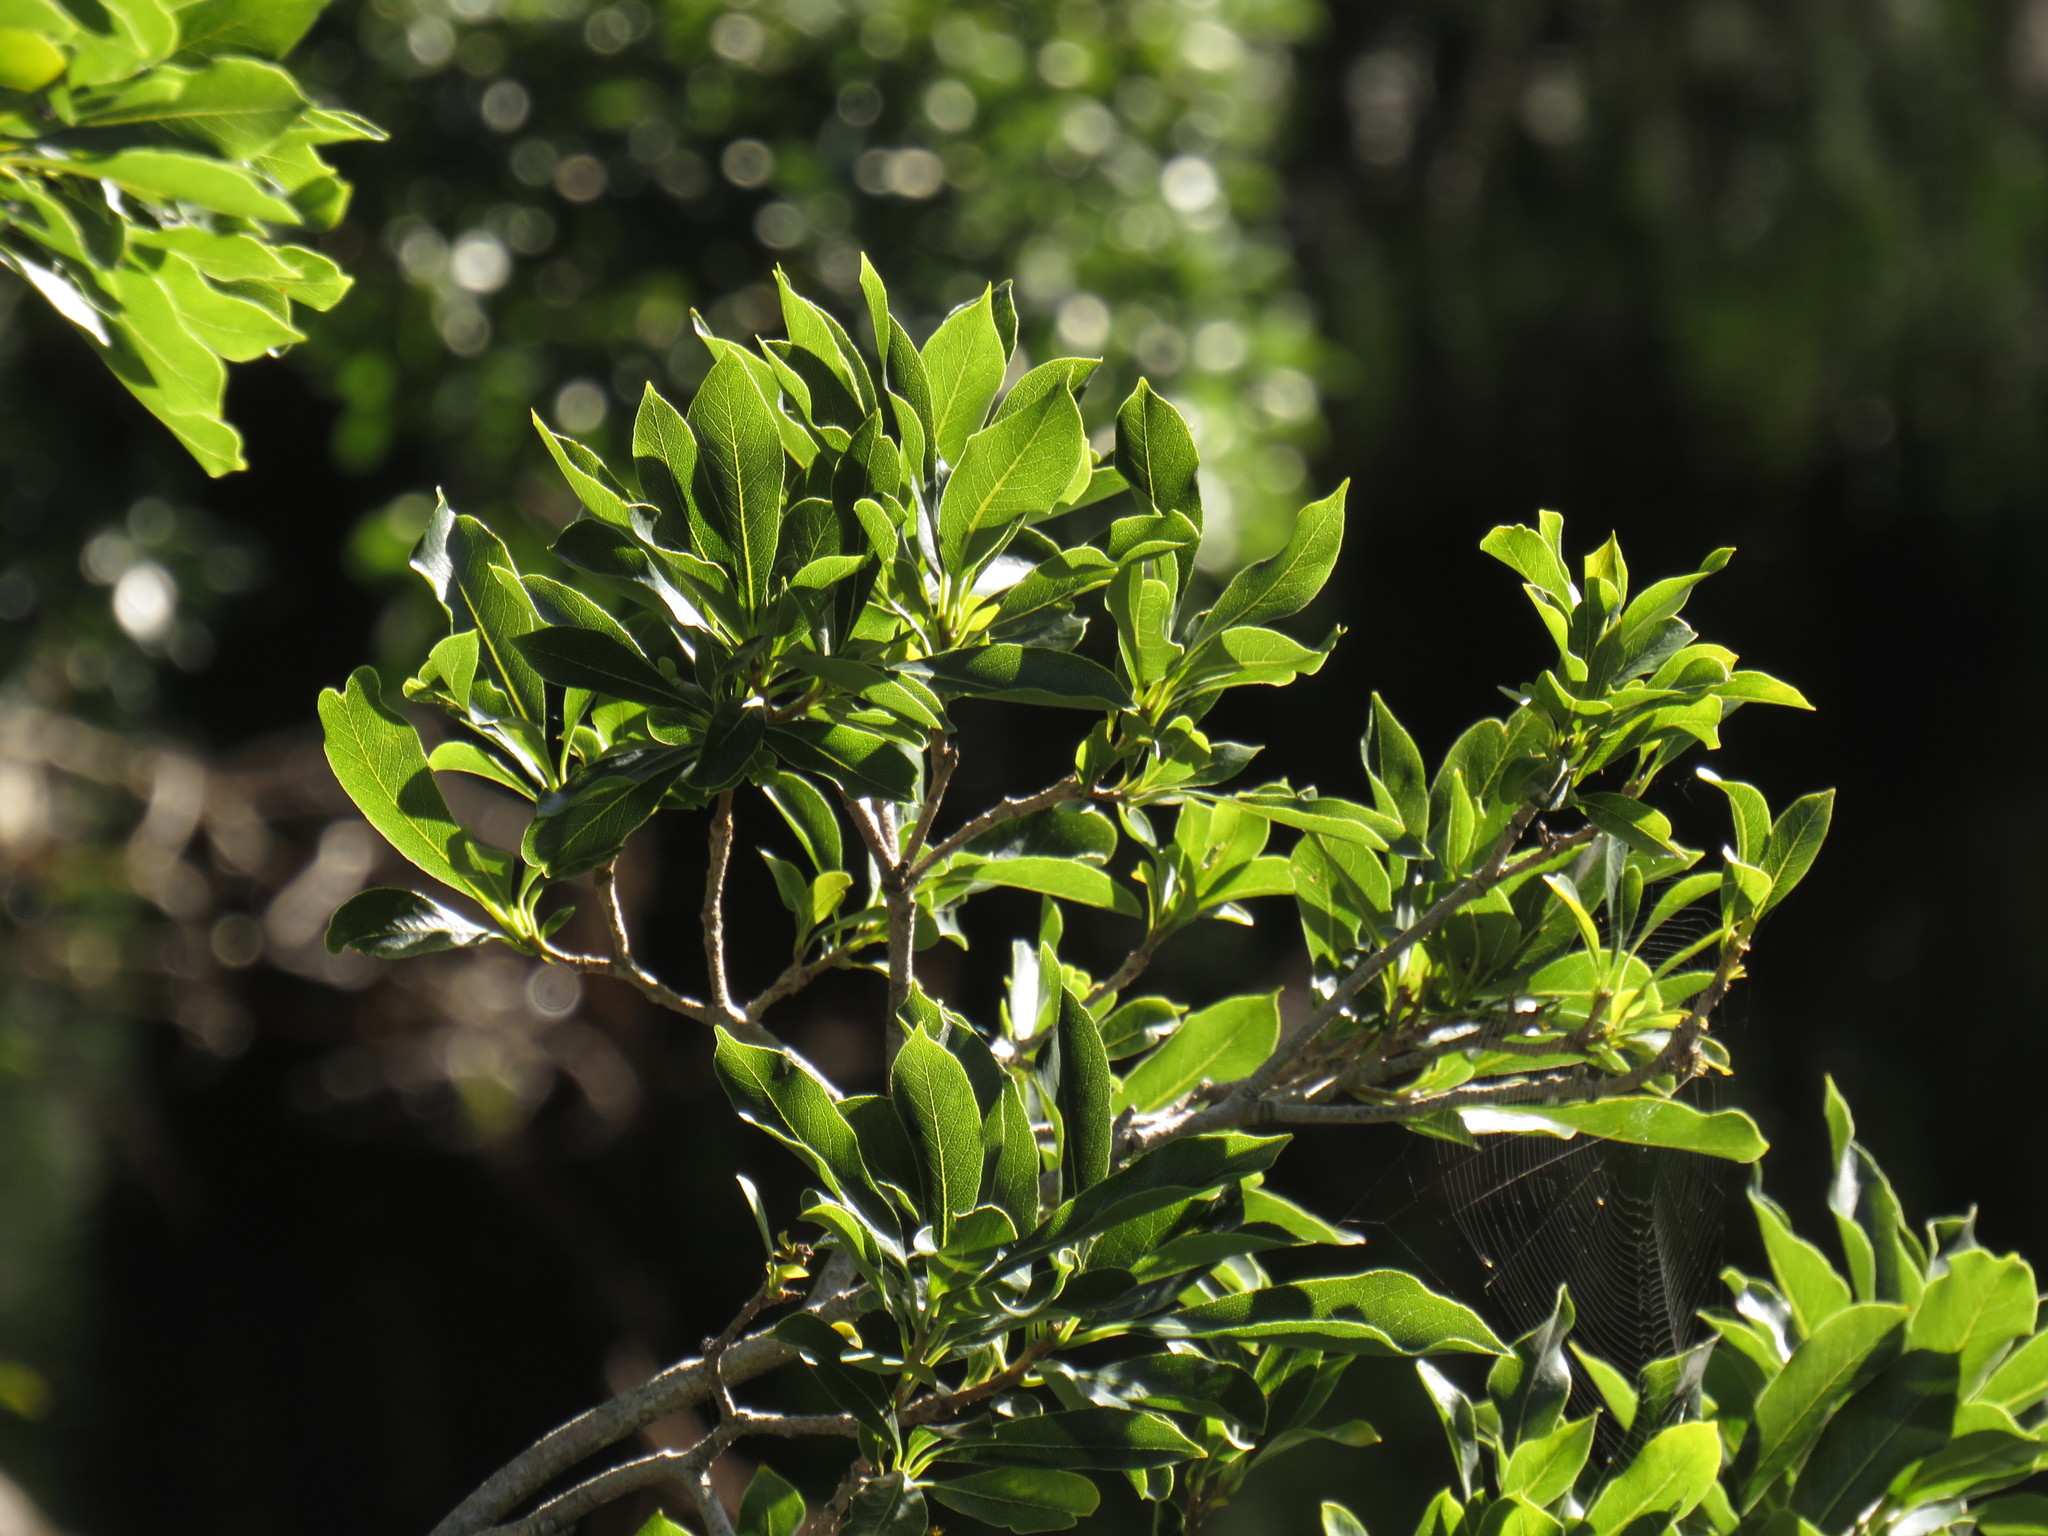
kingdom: Plantae
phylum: Tracheophyta
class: Magnoliopsida
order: Aquifoliales
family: Aquifoliaceae
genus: Ilex
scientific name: Ilex mitis
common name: African holly
